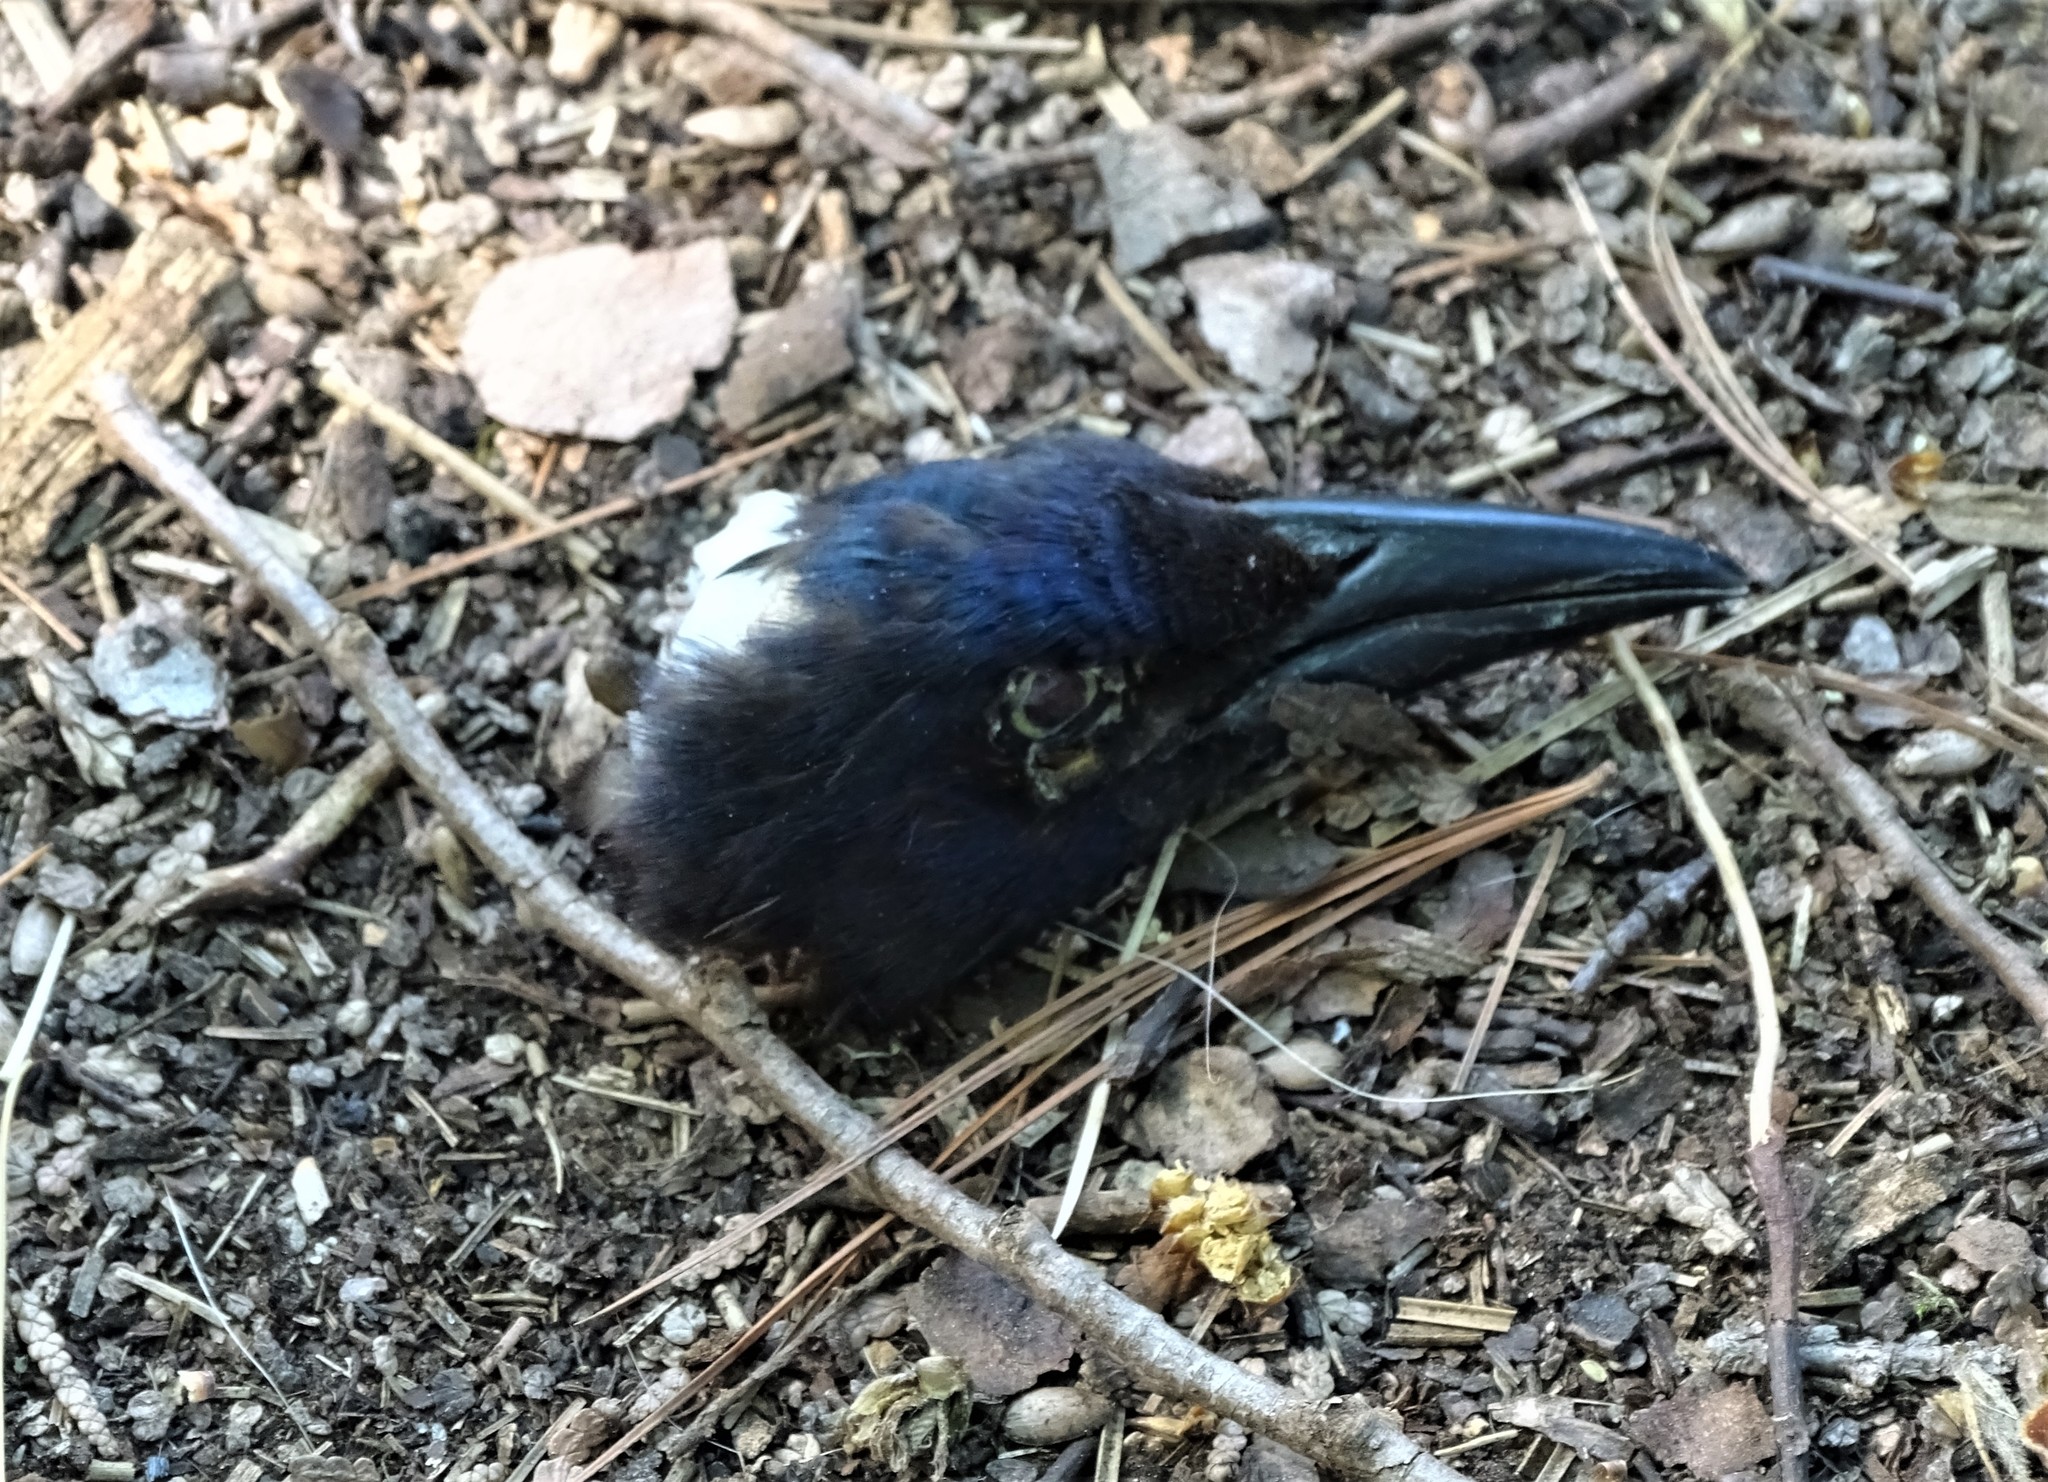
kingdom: Animalia
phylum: Chordata
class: Aves
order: Passeriformes
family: Icteridae
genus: Quiscalus
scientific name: Quiscalus quiscula
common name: Common grackle
